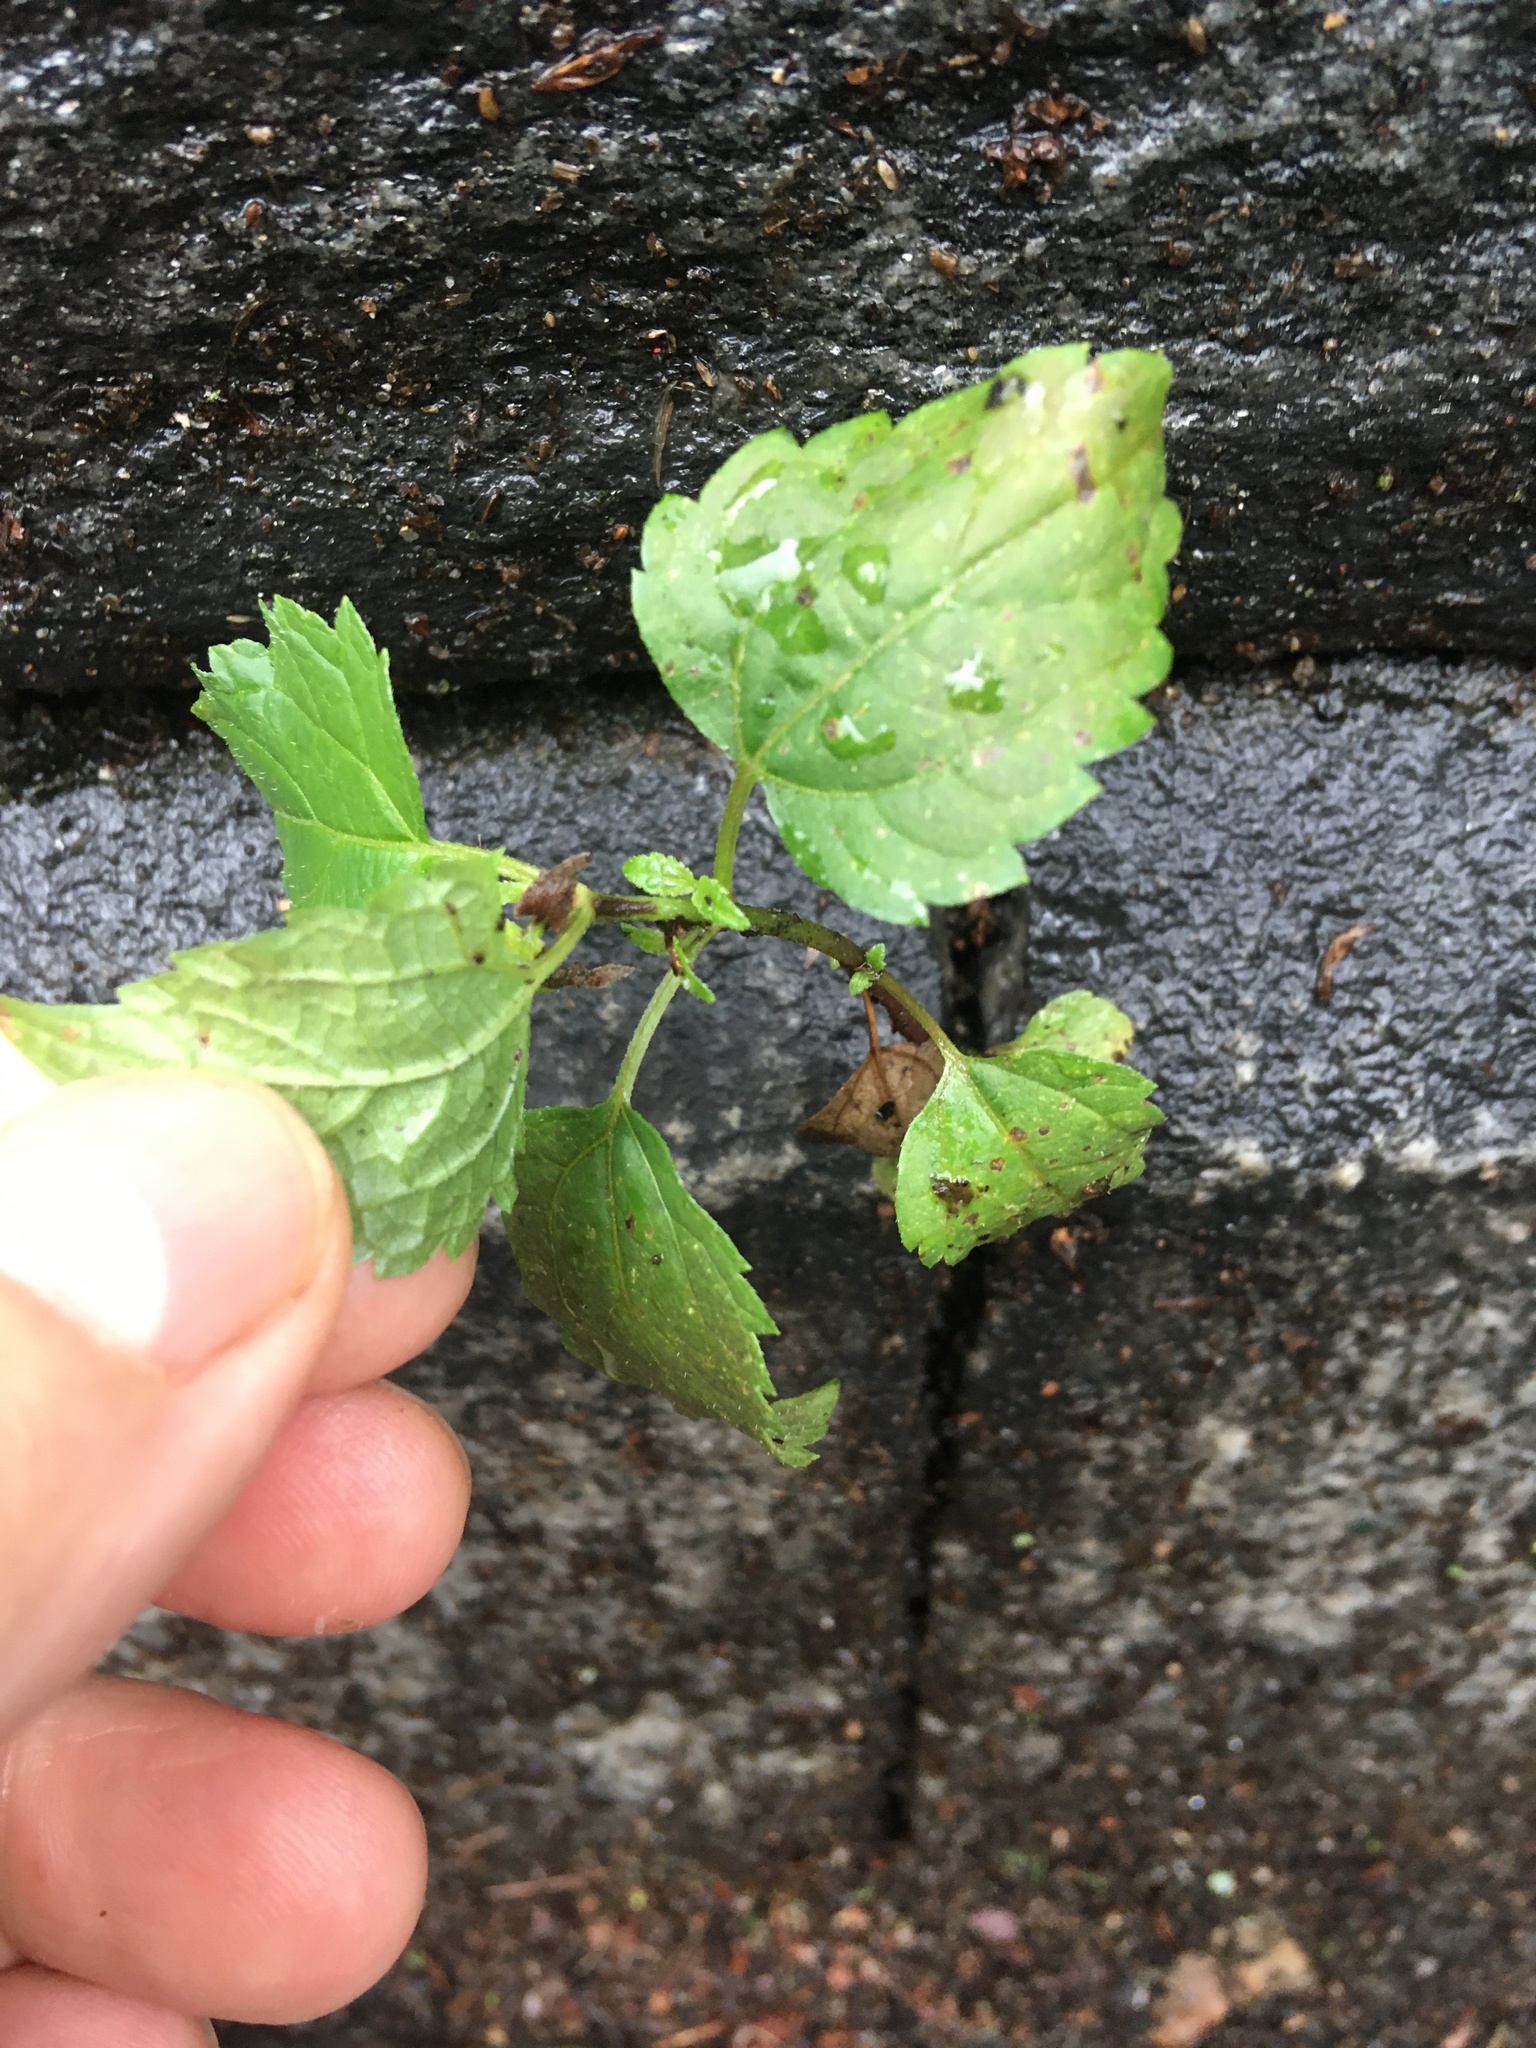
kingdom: Plantae
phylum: Tracheophyta
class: Magnoliopsida
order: Asterales
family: Asteraceae
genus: Ageratina
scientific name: Ageratina altissima
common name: White snakeroot
